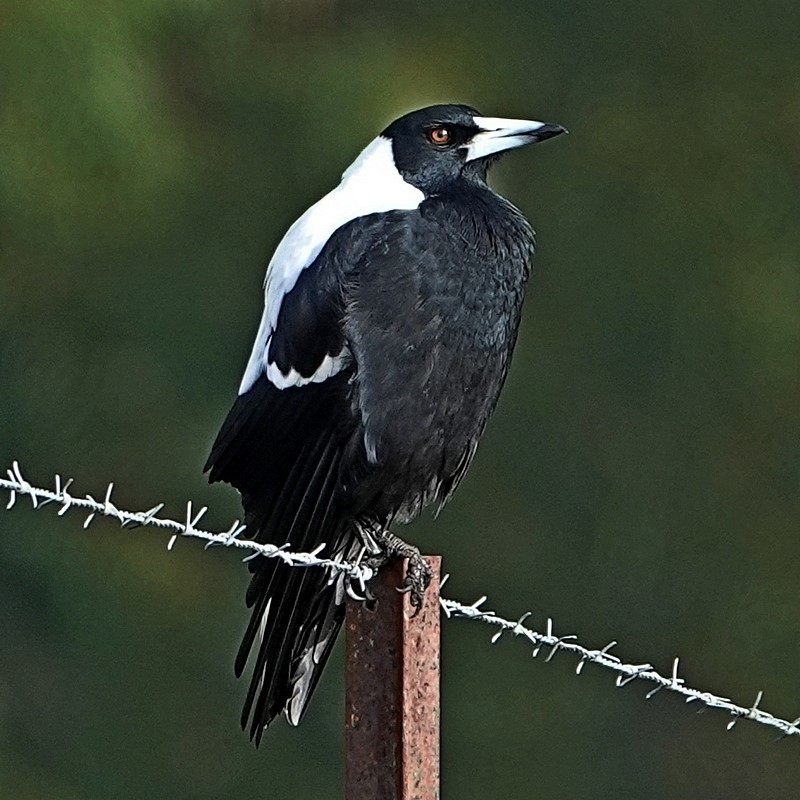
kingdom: Animalia
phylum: Chordata
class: Aves
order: Passeriformes
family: Cracticidae
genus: Gymnorhina
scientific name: Gymnorhina tibicen
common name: Australian magpie
